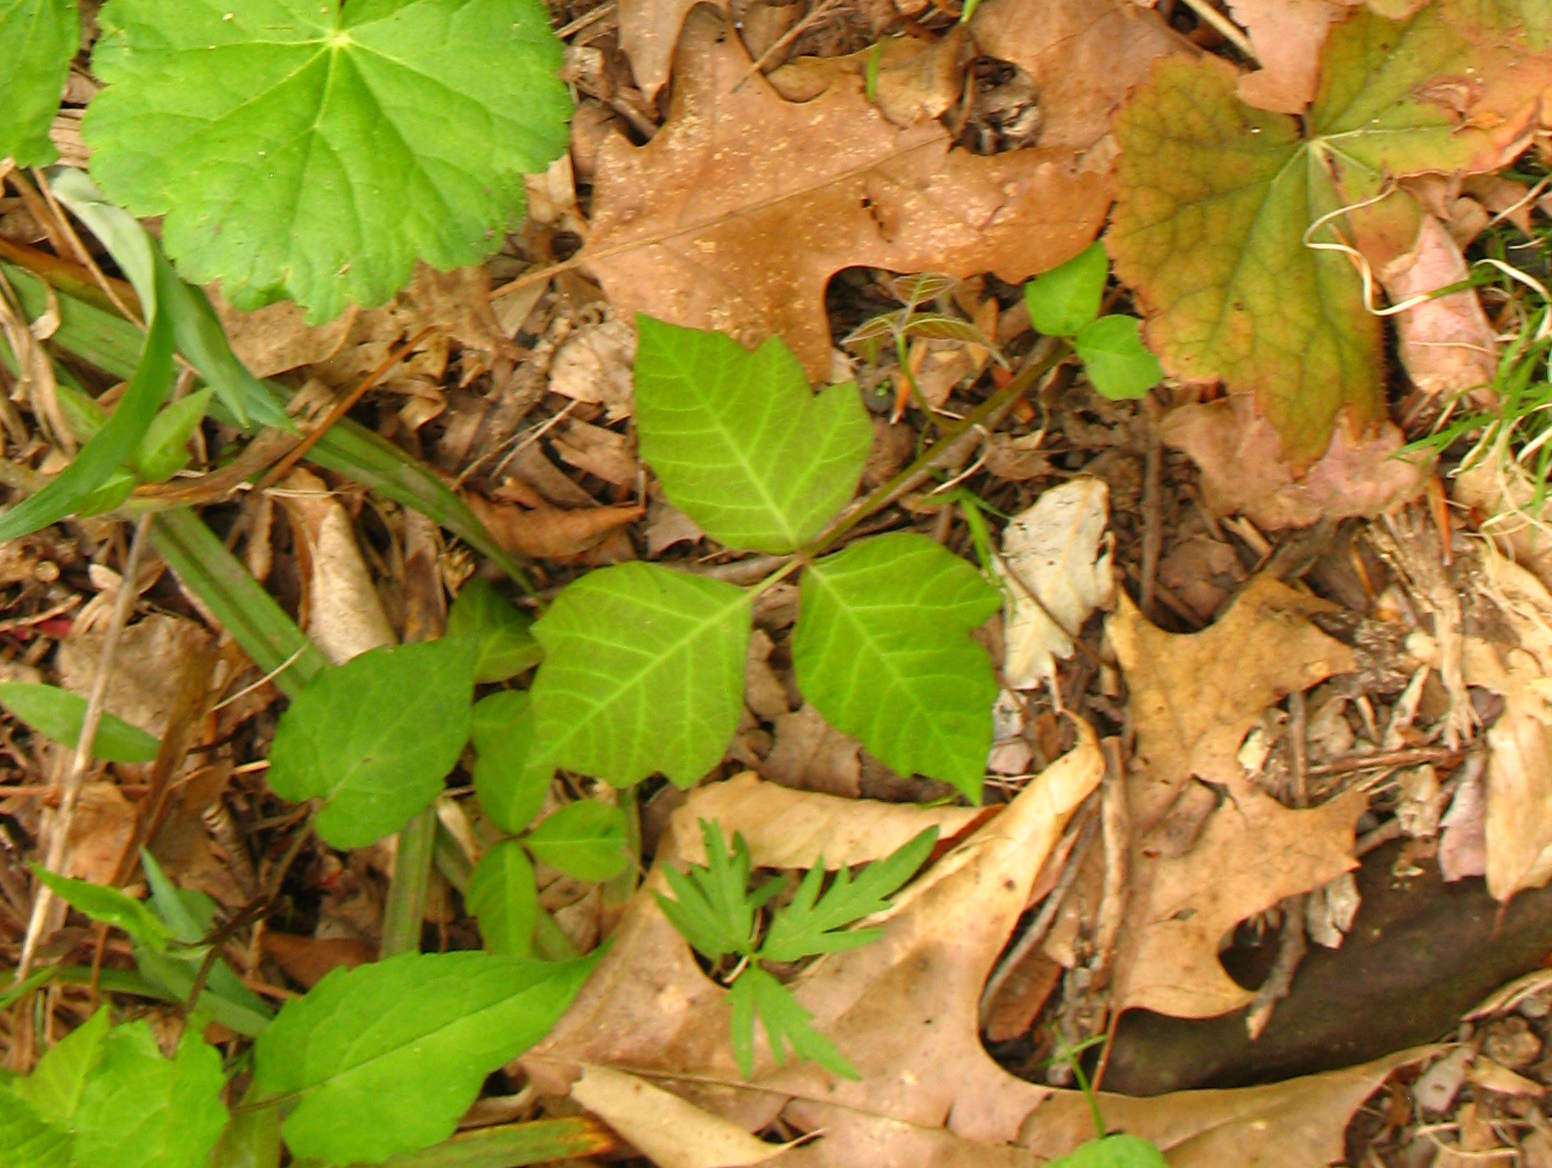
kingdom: Plantae
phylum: Tracheophyta
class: Magnoliopsida
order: Sapindales
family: Anacardiaceae
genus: Toxicodendron
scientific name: Toxicodendron radicans
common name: Poison ivy
